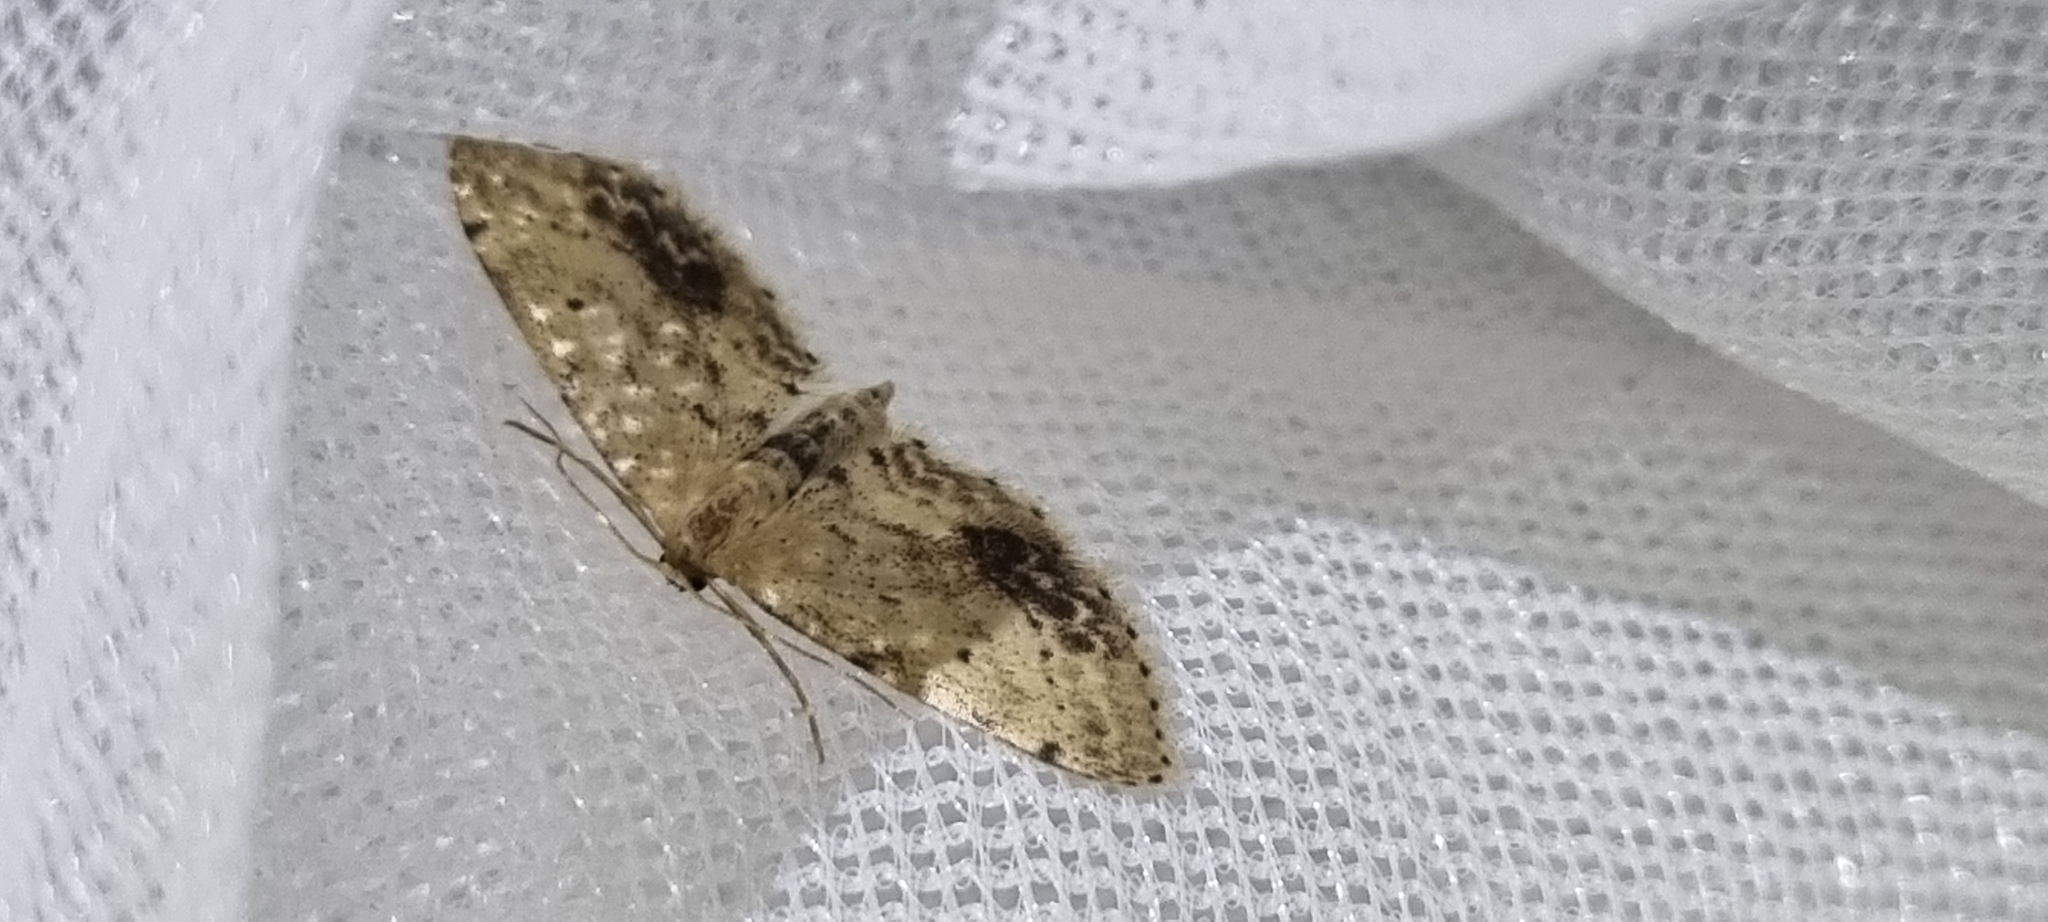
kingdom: Animalia
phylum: Arthropoda
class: Insecta
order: Lepidoptera
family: Geometridae
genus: Idaea
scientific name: Idaea dimidiata
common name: Single-dotted wave
